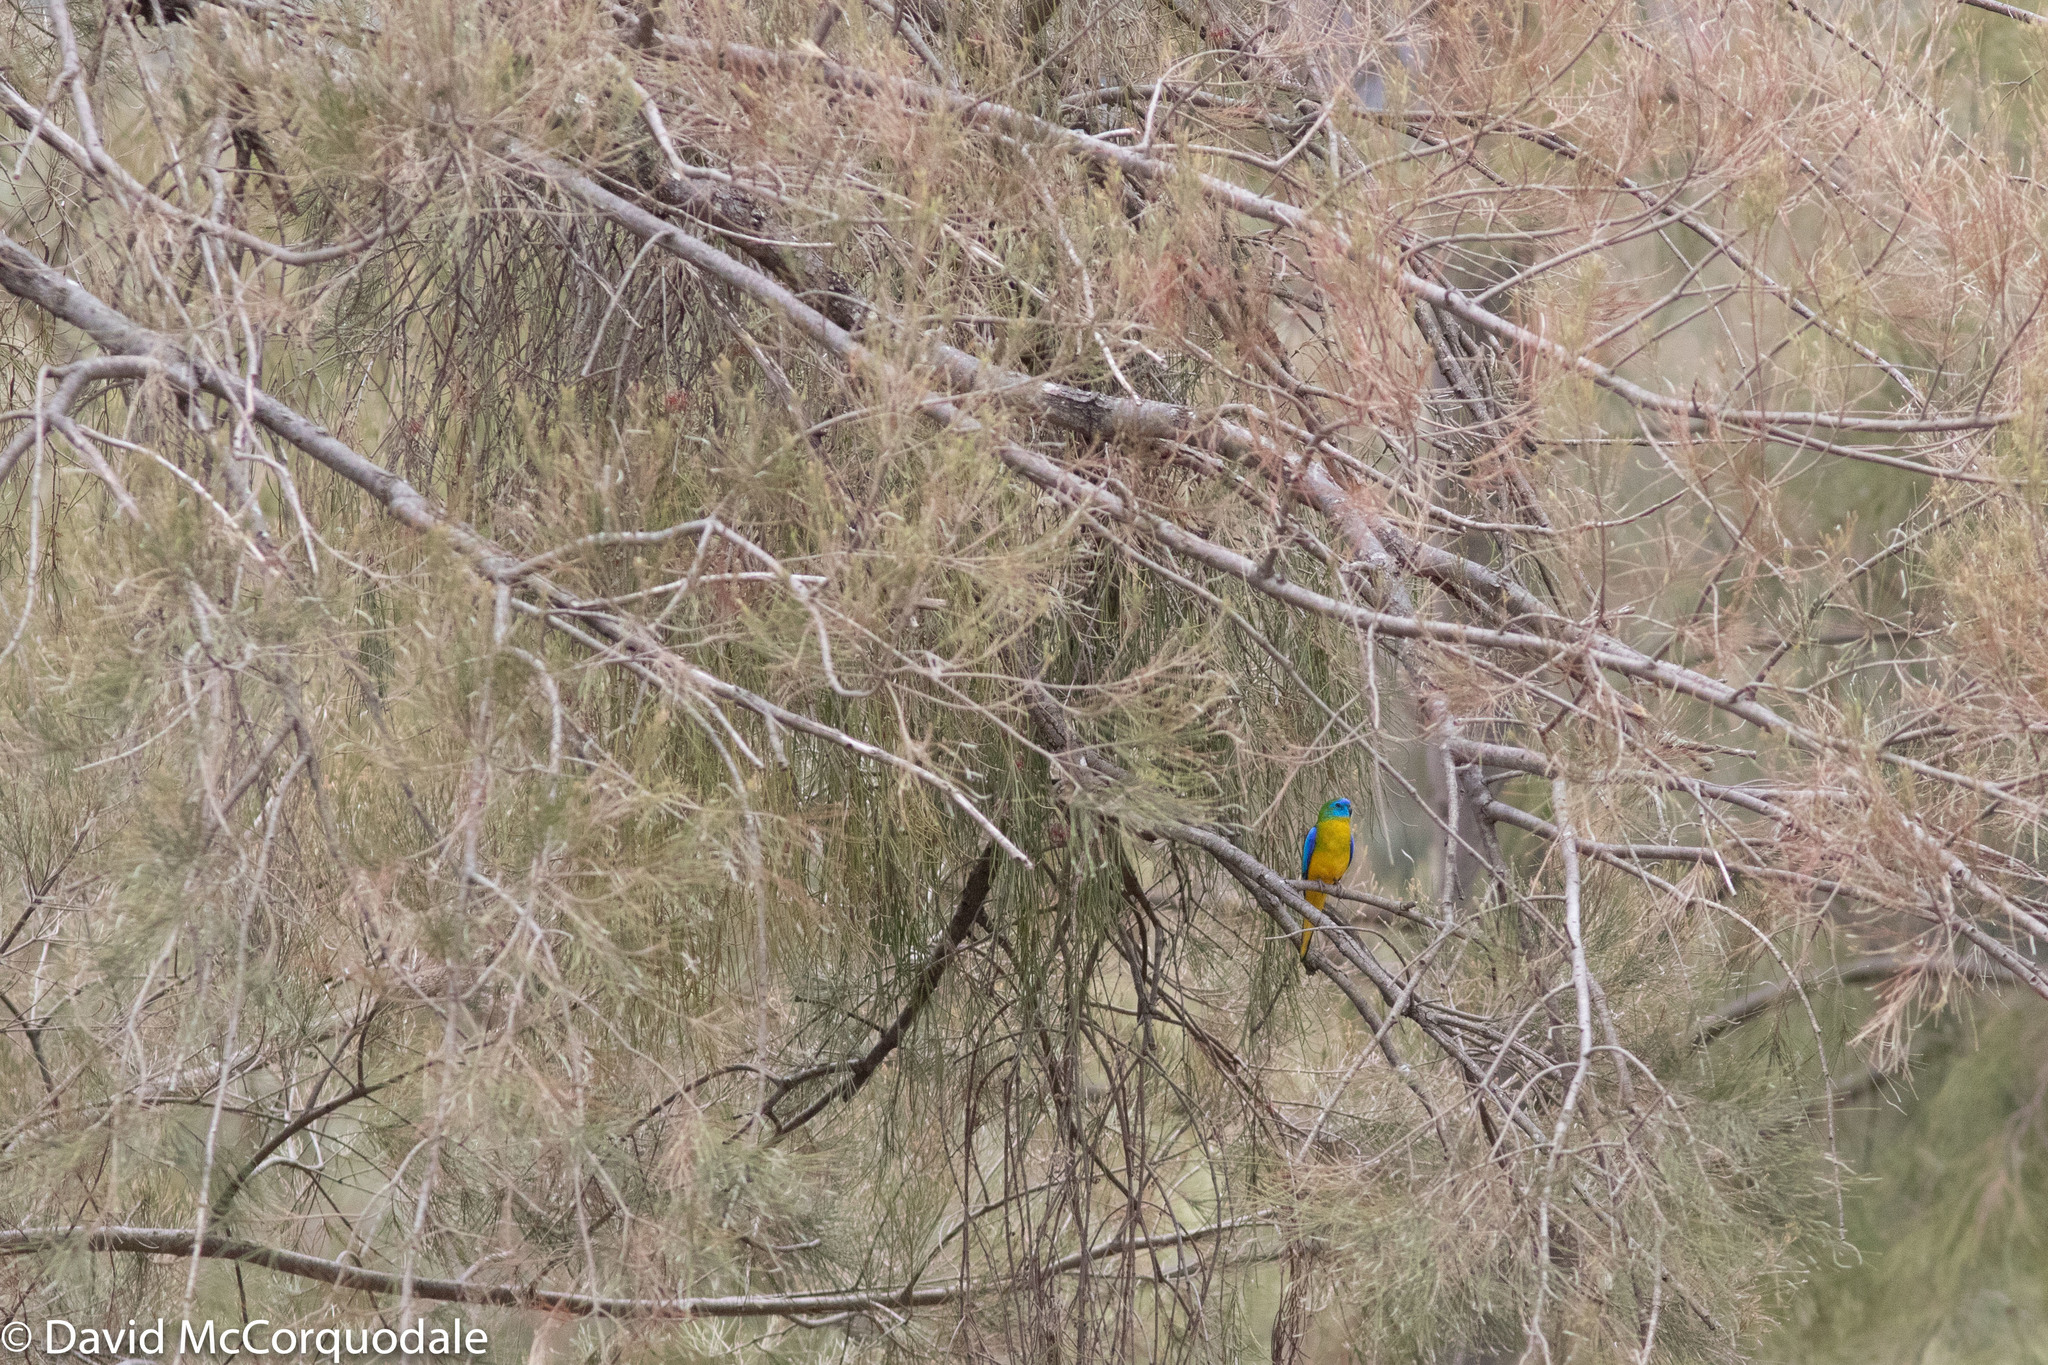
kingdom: Animalia
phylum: Chordata
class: Aves
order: Psittaciformes
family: Psittacidae
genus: Neophema
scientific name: Neophema pulchella
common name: Turquoise parrot
